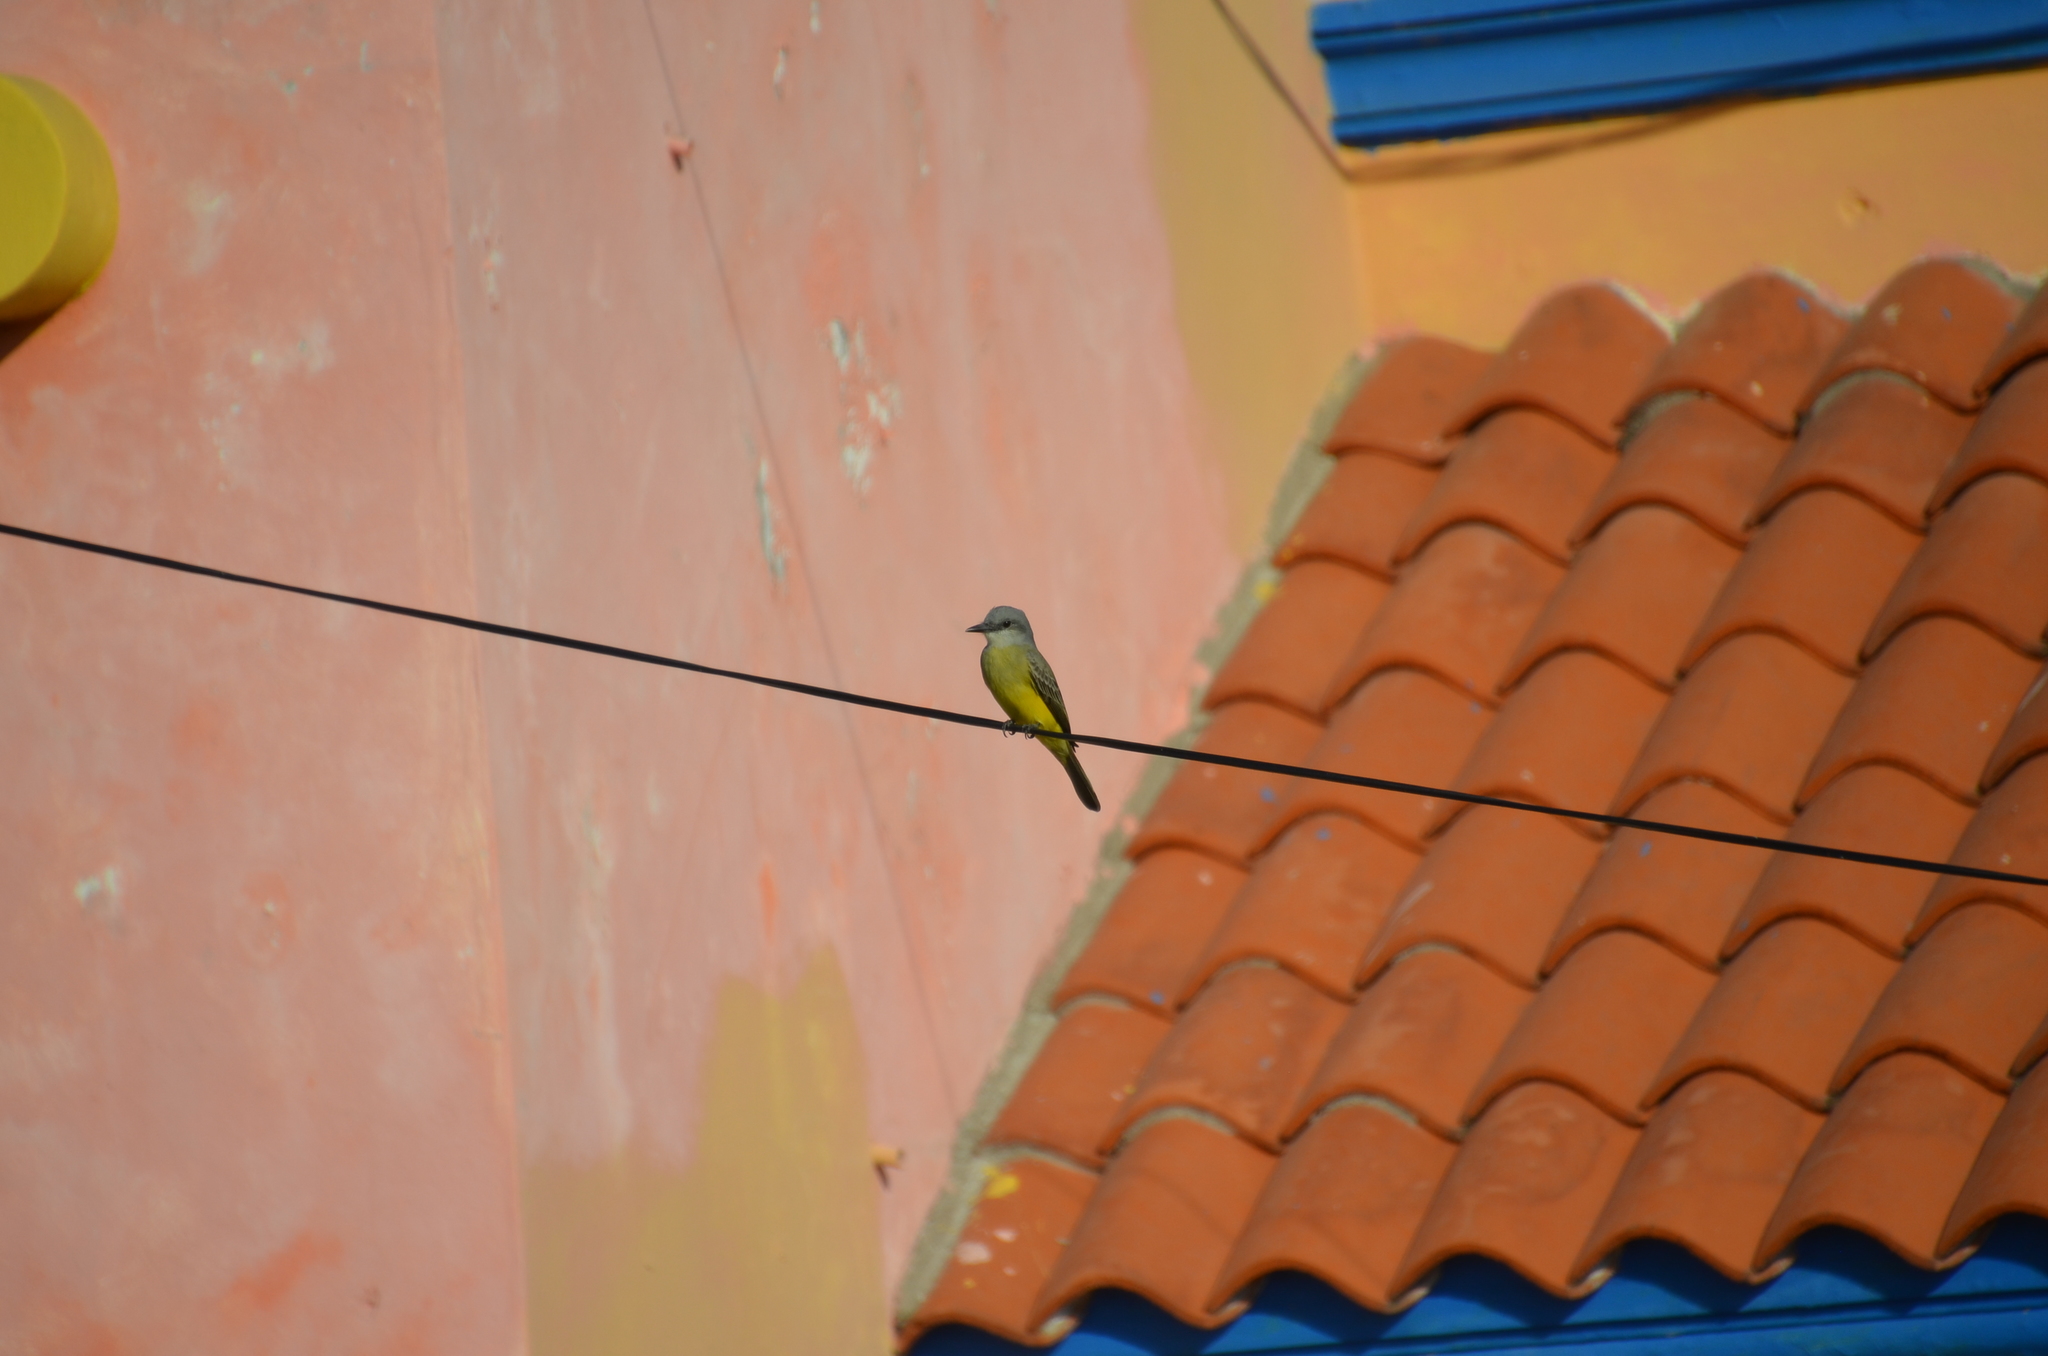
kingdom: Animalia
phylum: Chordata
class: Aves
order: Passeriformes
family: Tyrannidae
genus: Tyrannus
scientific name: Tyrannus melancholicus
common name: Tropical kingbird
